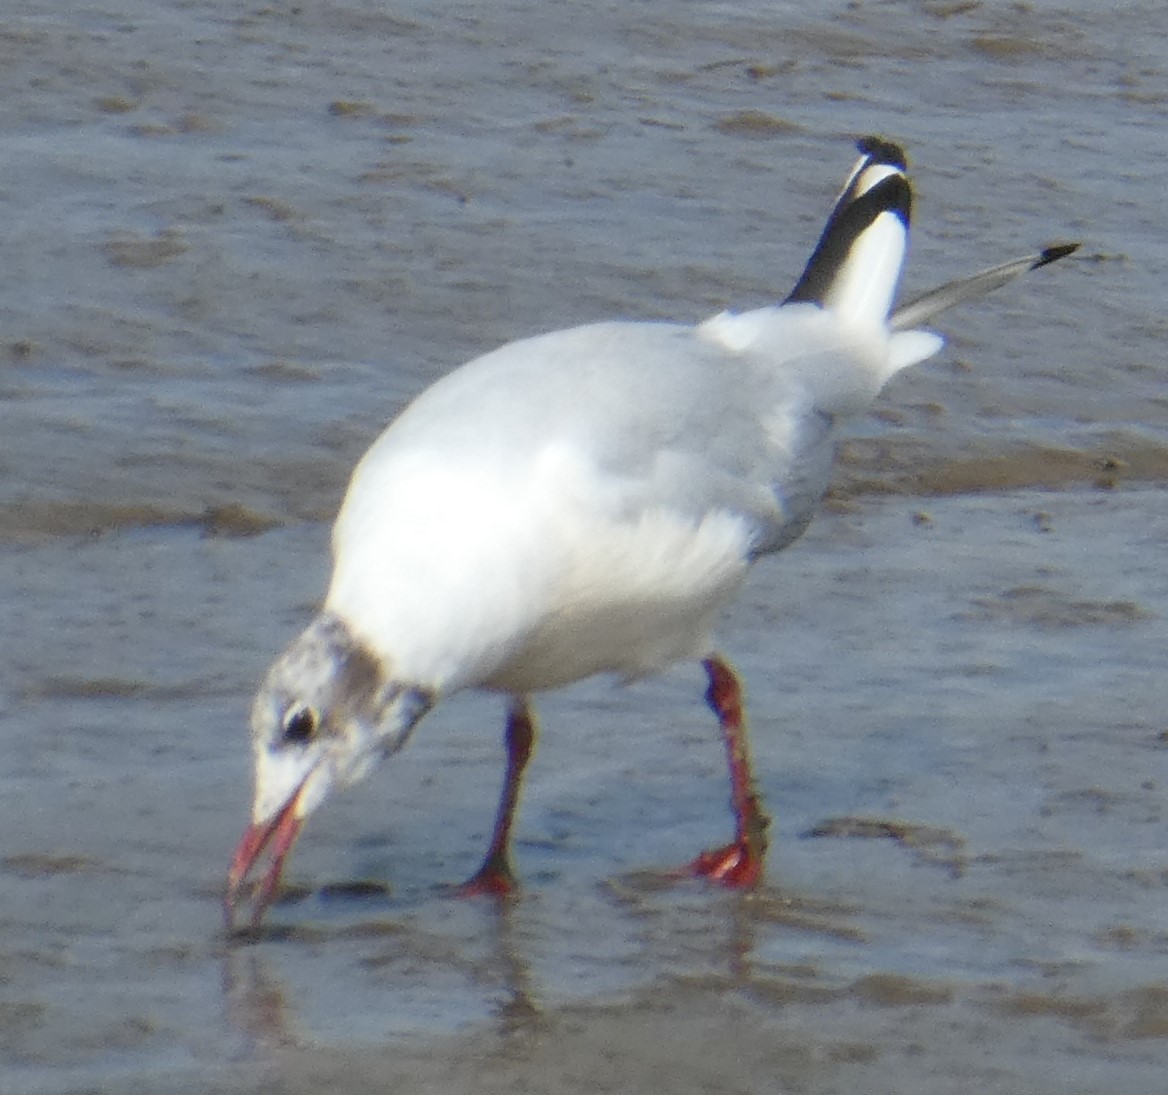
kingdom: Animalia
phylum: Chordata
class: Aves
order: Charadriiformes
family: Laridae
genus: Chroicocephalus
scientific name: Chroicocephalus ridibundus
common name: Black-headed gull
